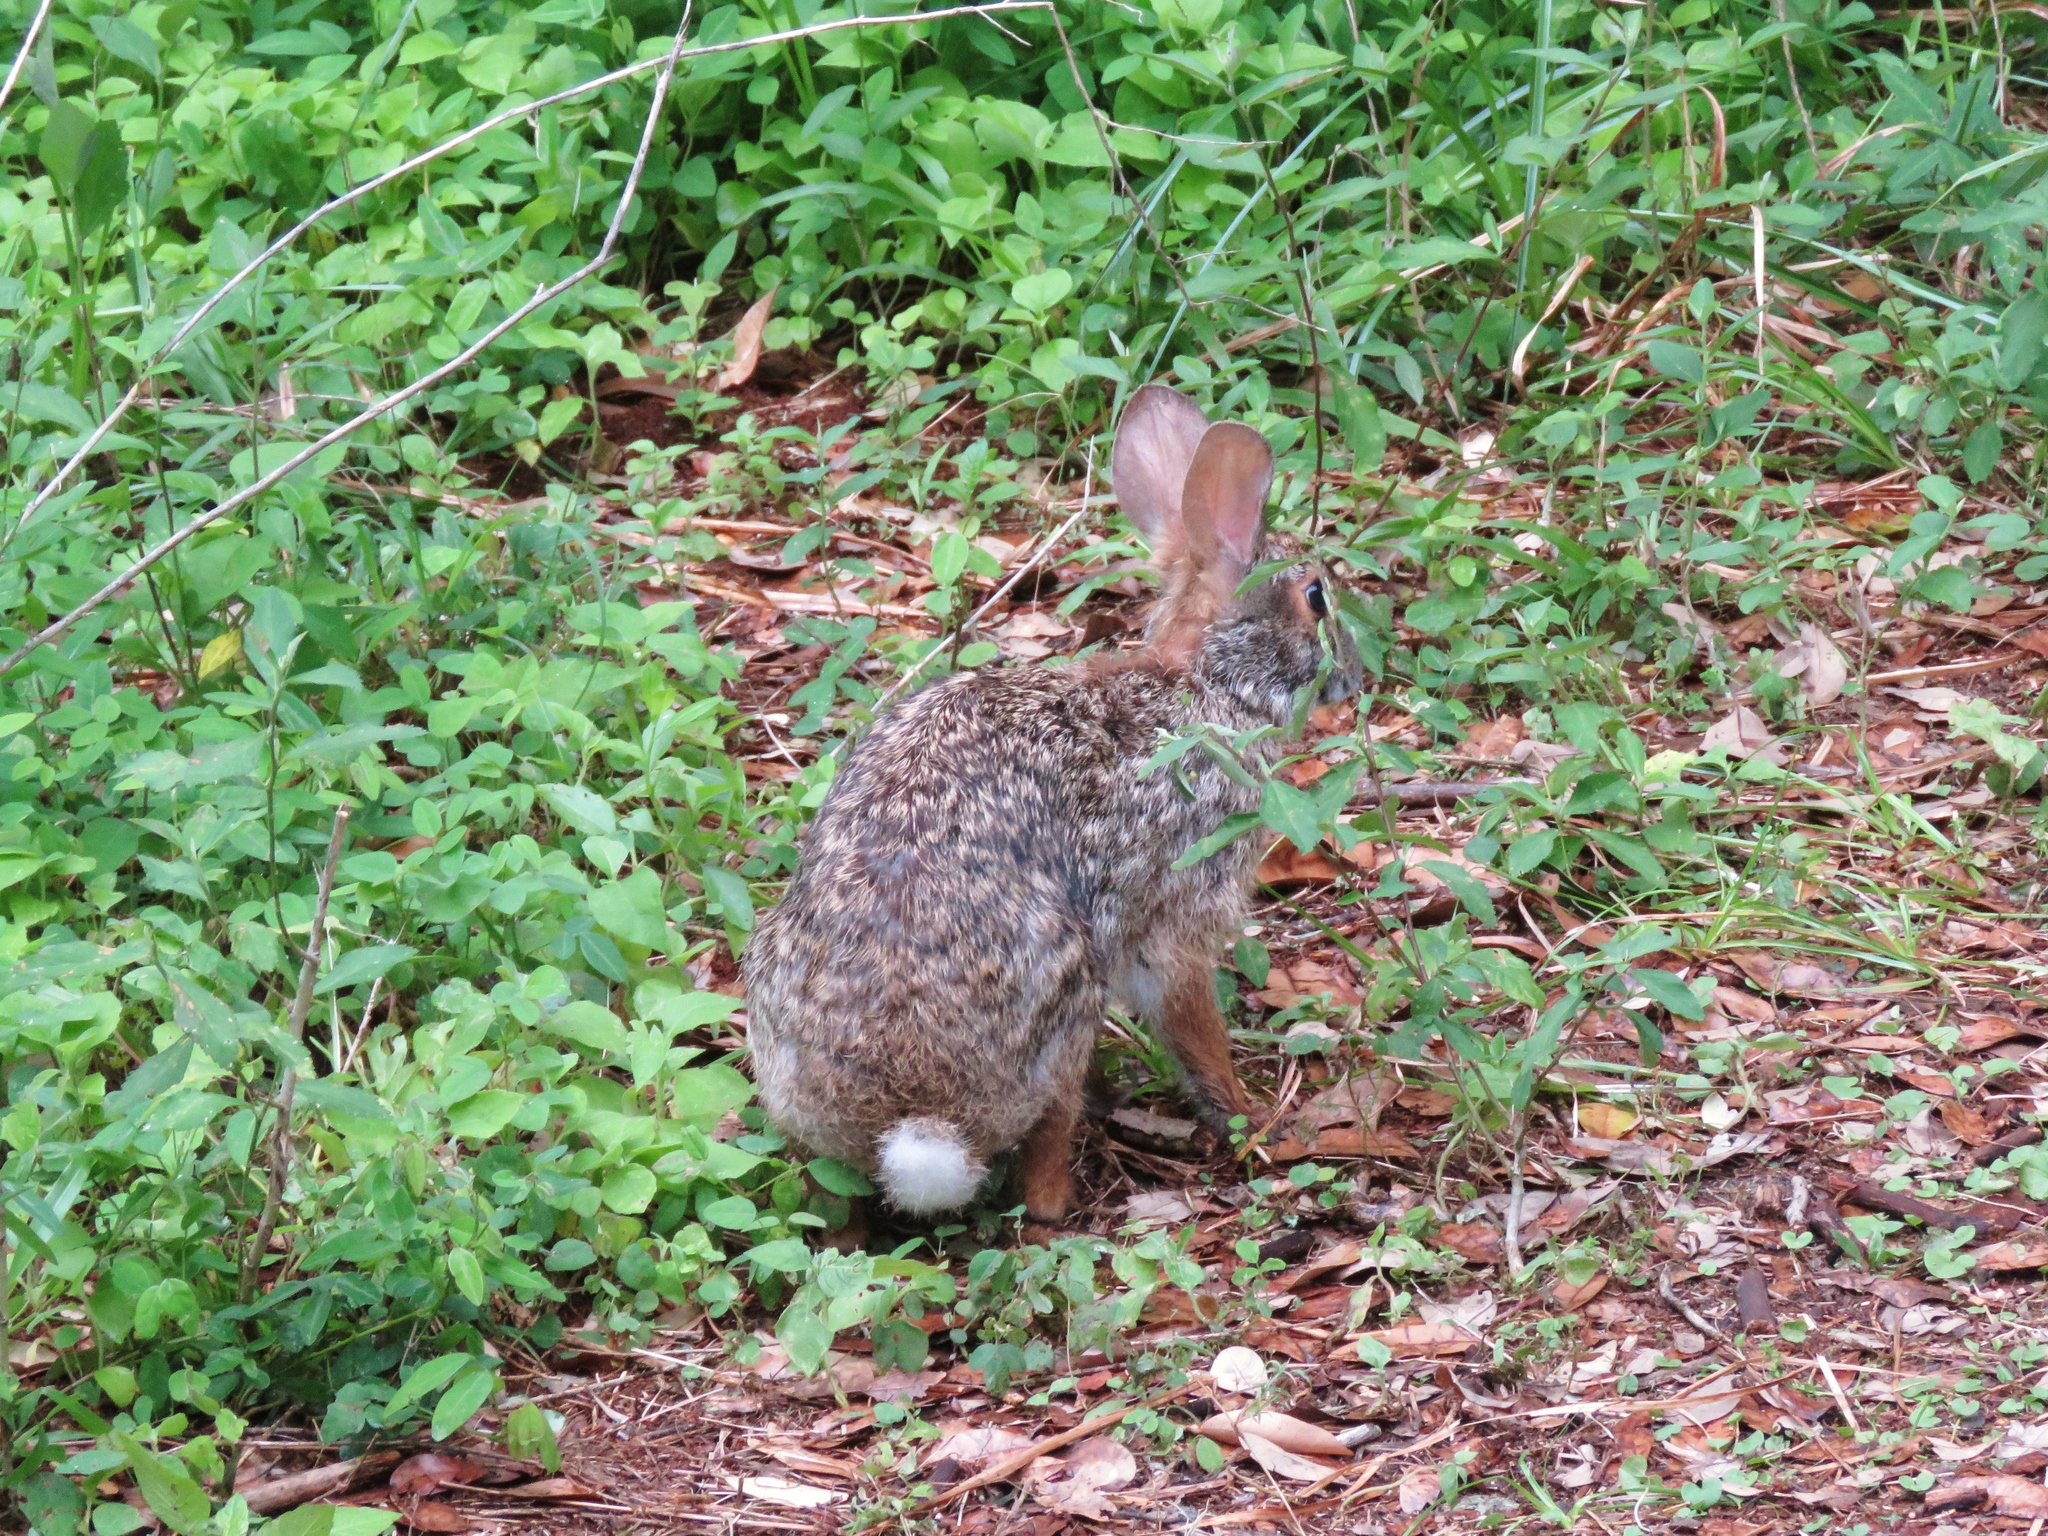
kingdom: Animalia
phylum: Chordata
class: Mammalia
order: Lagomorpha
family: Leporidae
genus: Sylvilagus
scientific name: Sylvilagus aquaticus
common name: Swamp rabbit
